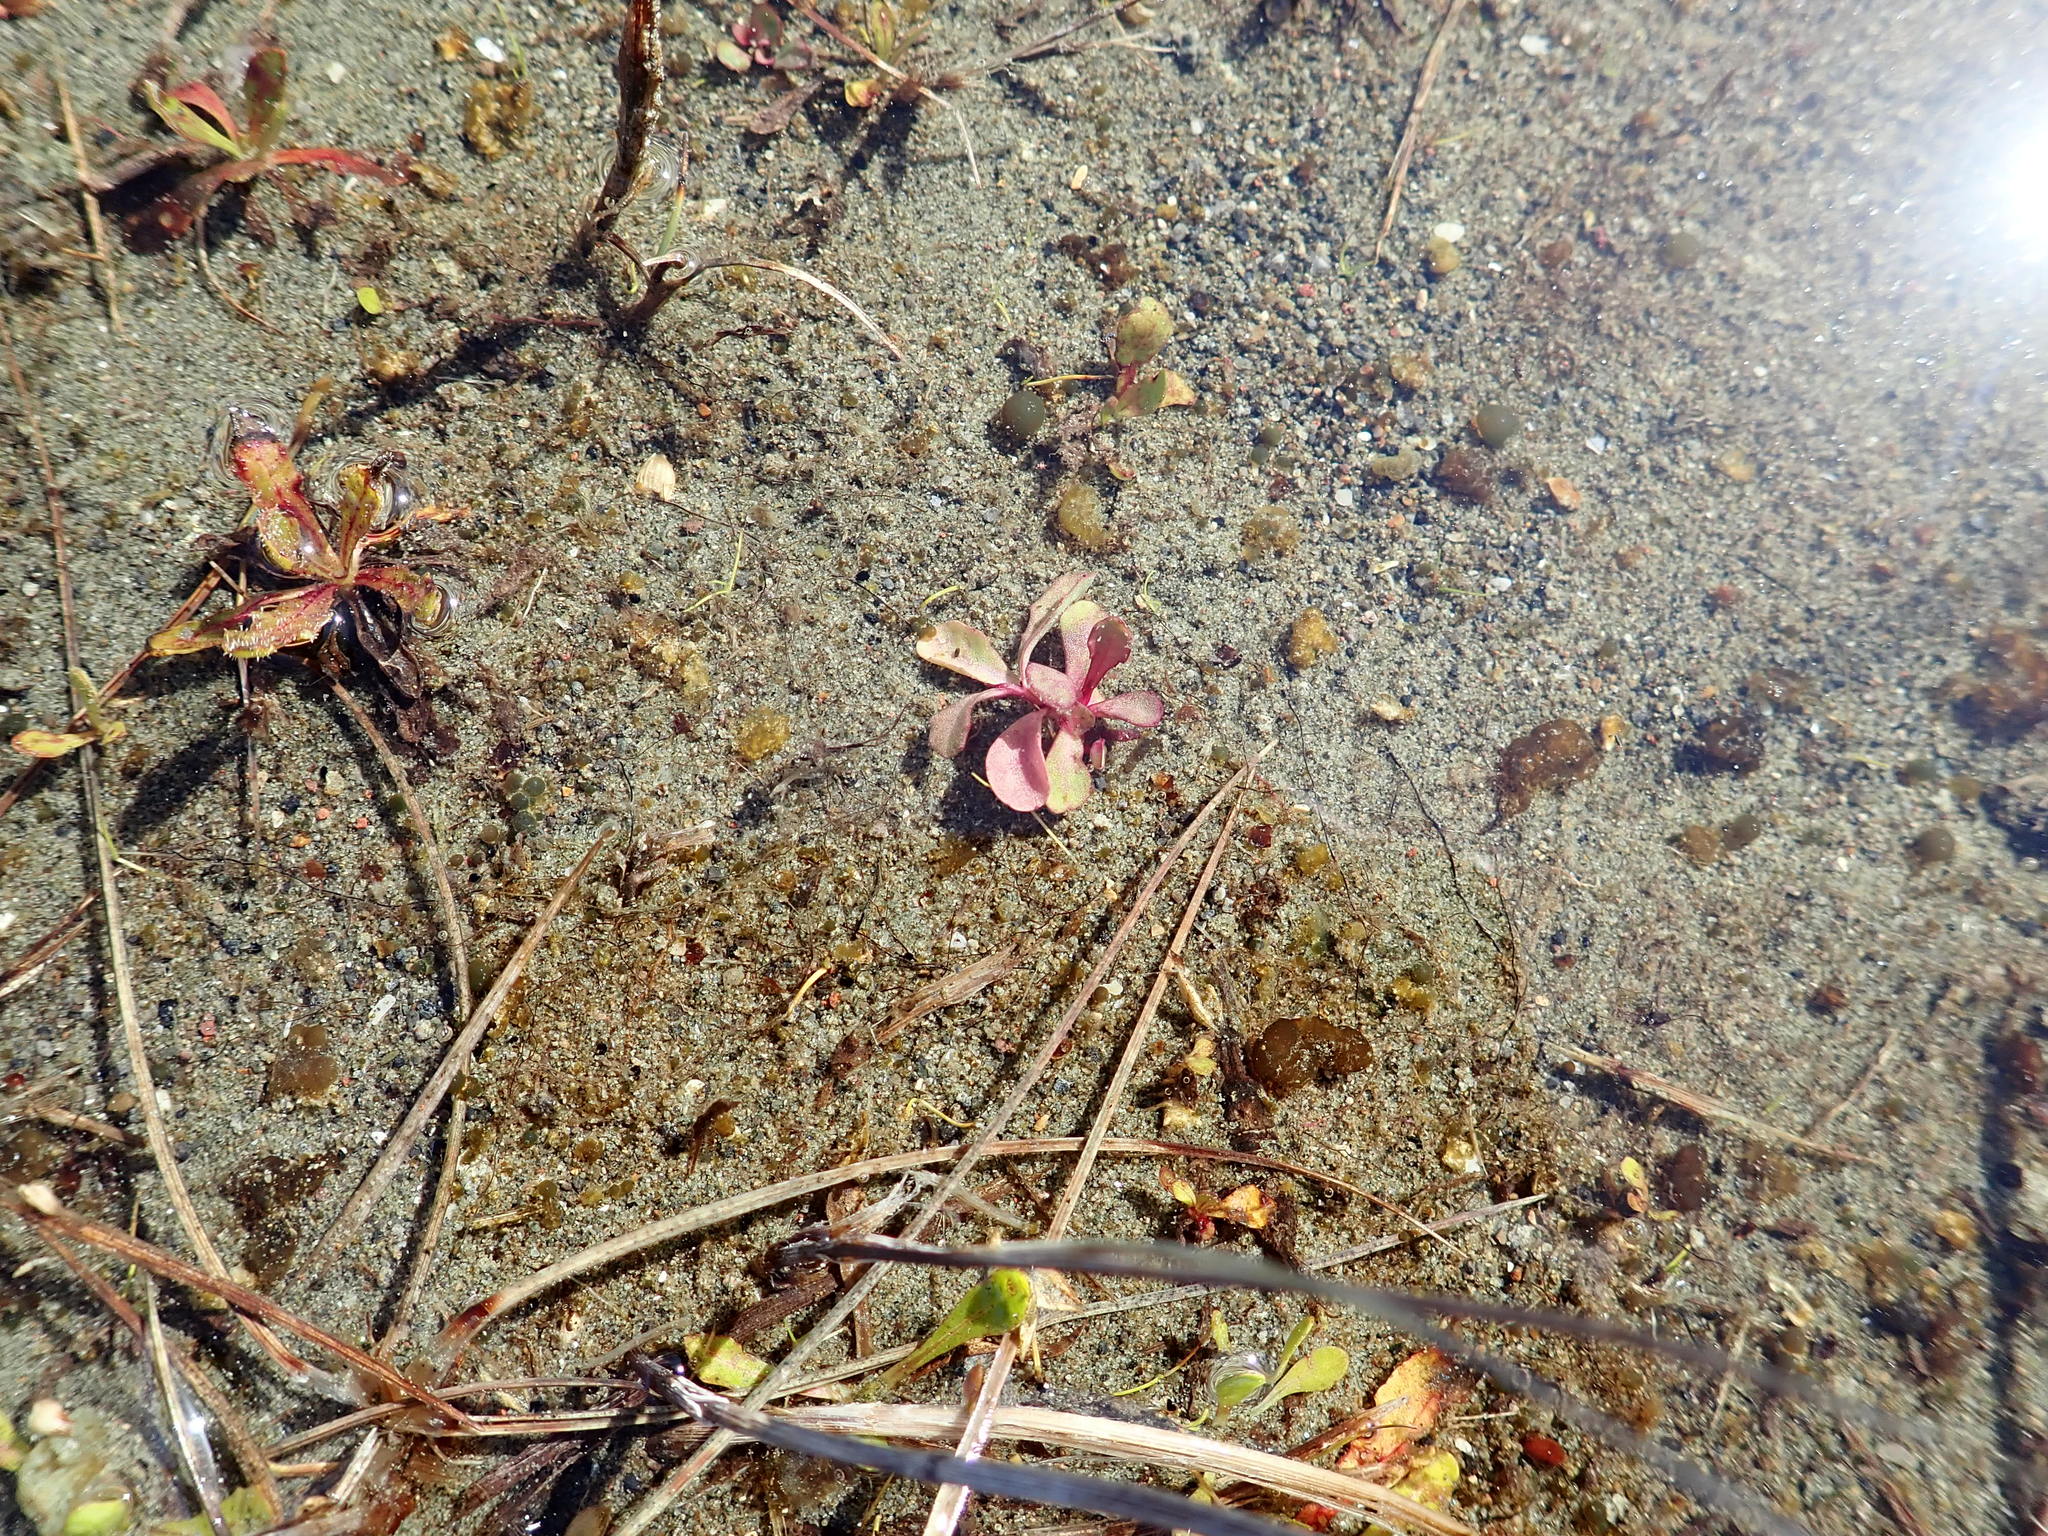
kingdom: Plantae
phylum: Tracheophyta
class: Magnoliopsida
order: Asterales
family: Campanulaceae
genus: Lobelia
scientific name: Lobelia anceps
